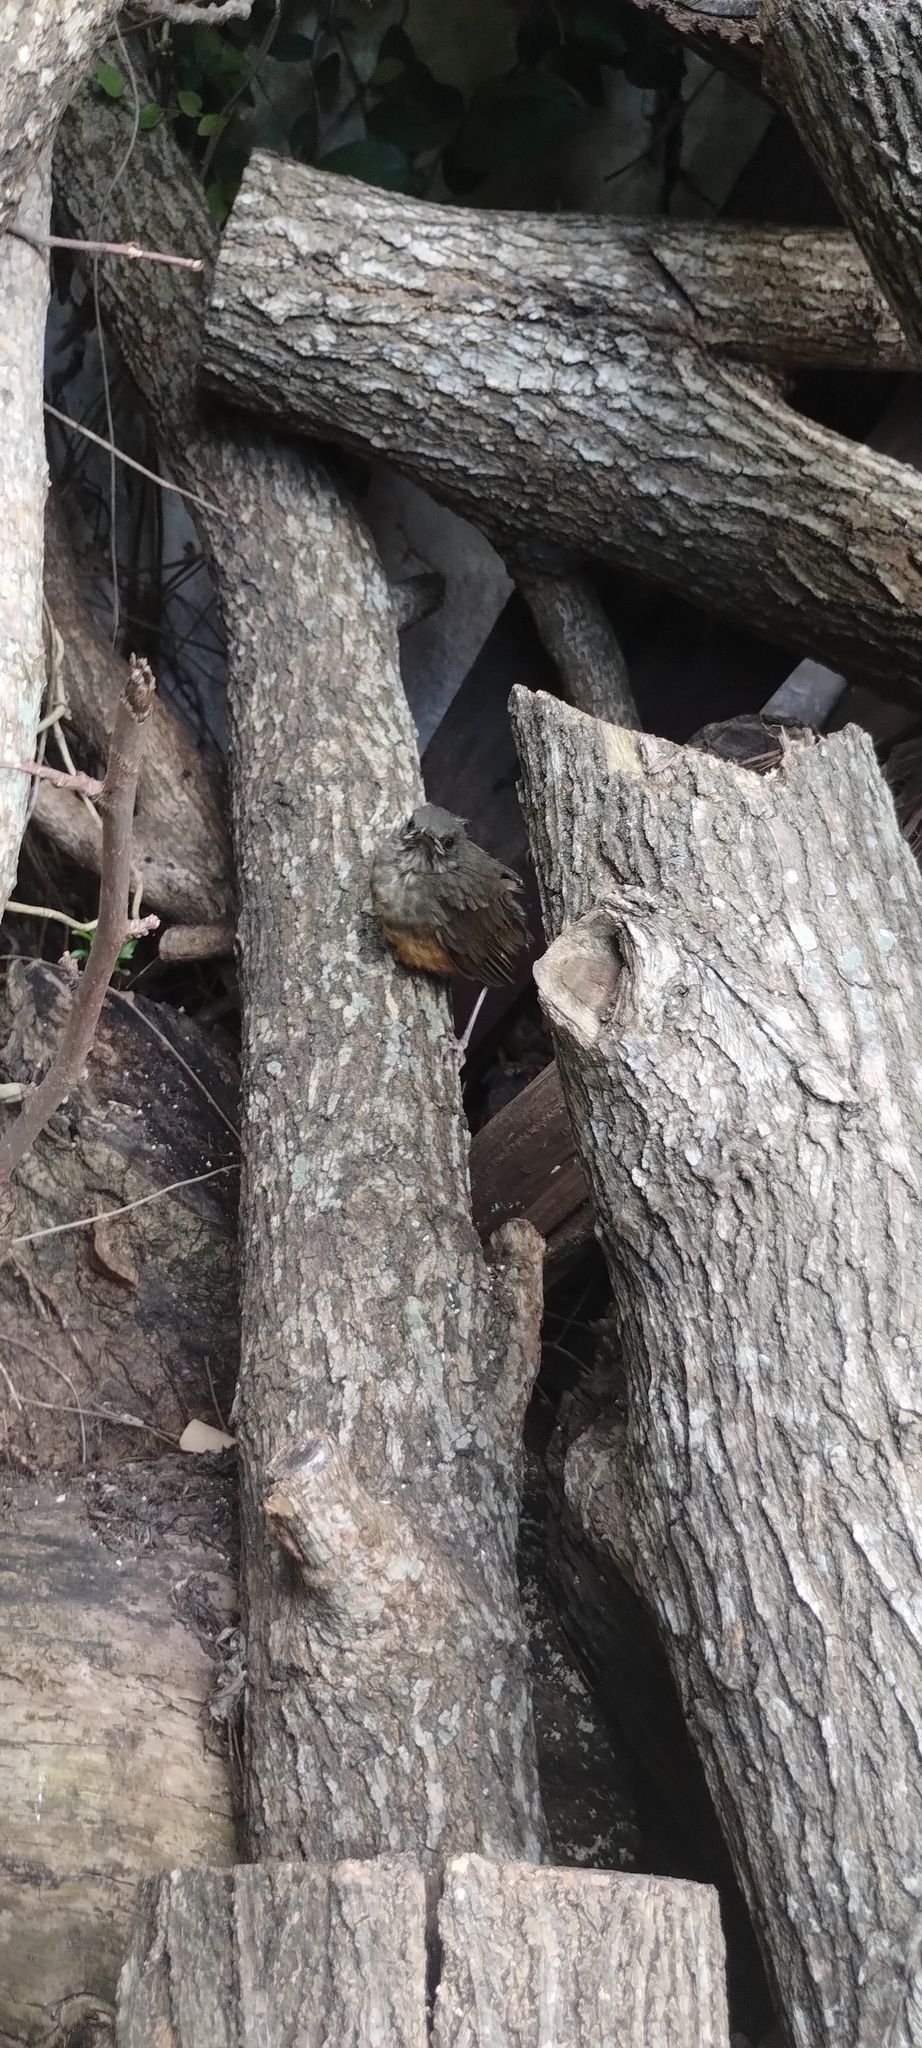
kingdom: Animalia
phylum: Chordata
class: Aves
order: Passeriformes
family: Turdidae
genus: Turdus
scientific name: Turdus rufiventris
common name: Rufous-bellied thrush
